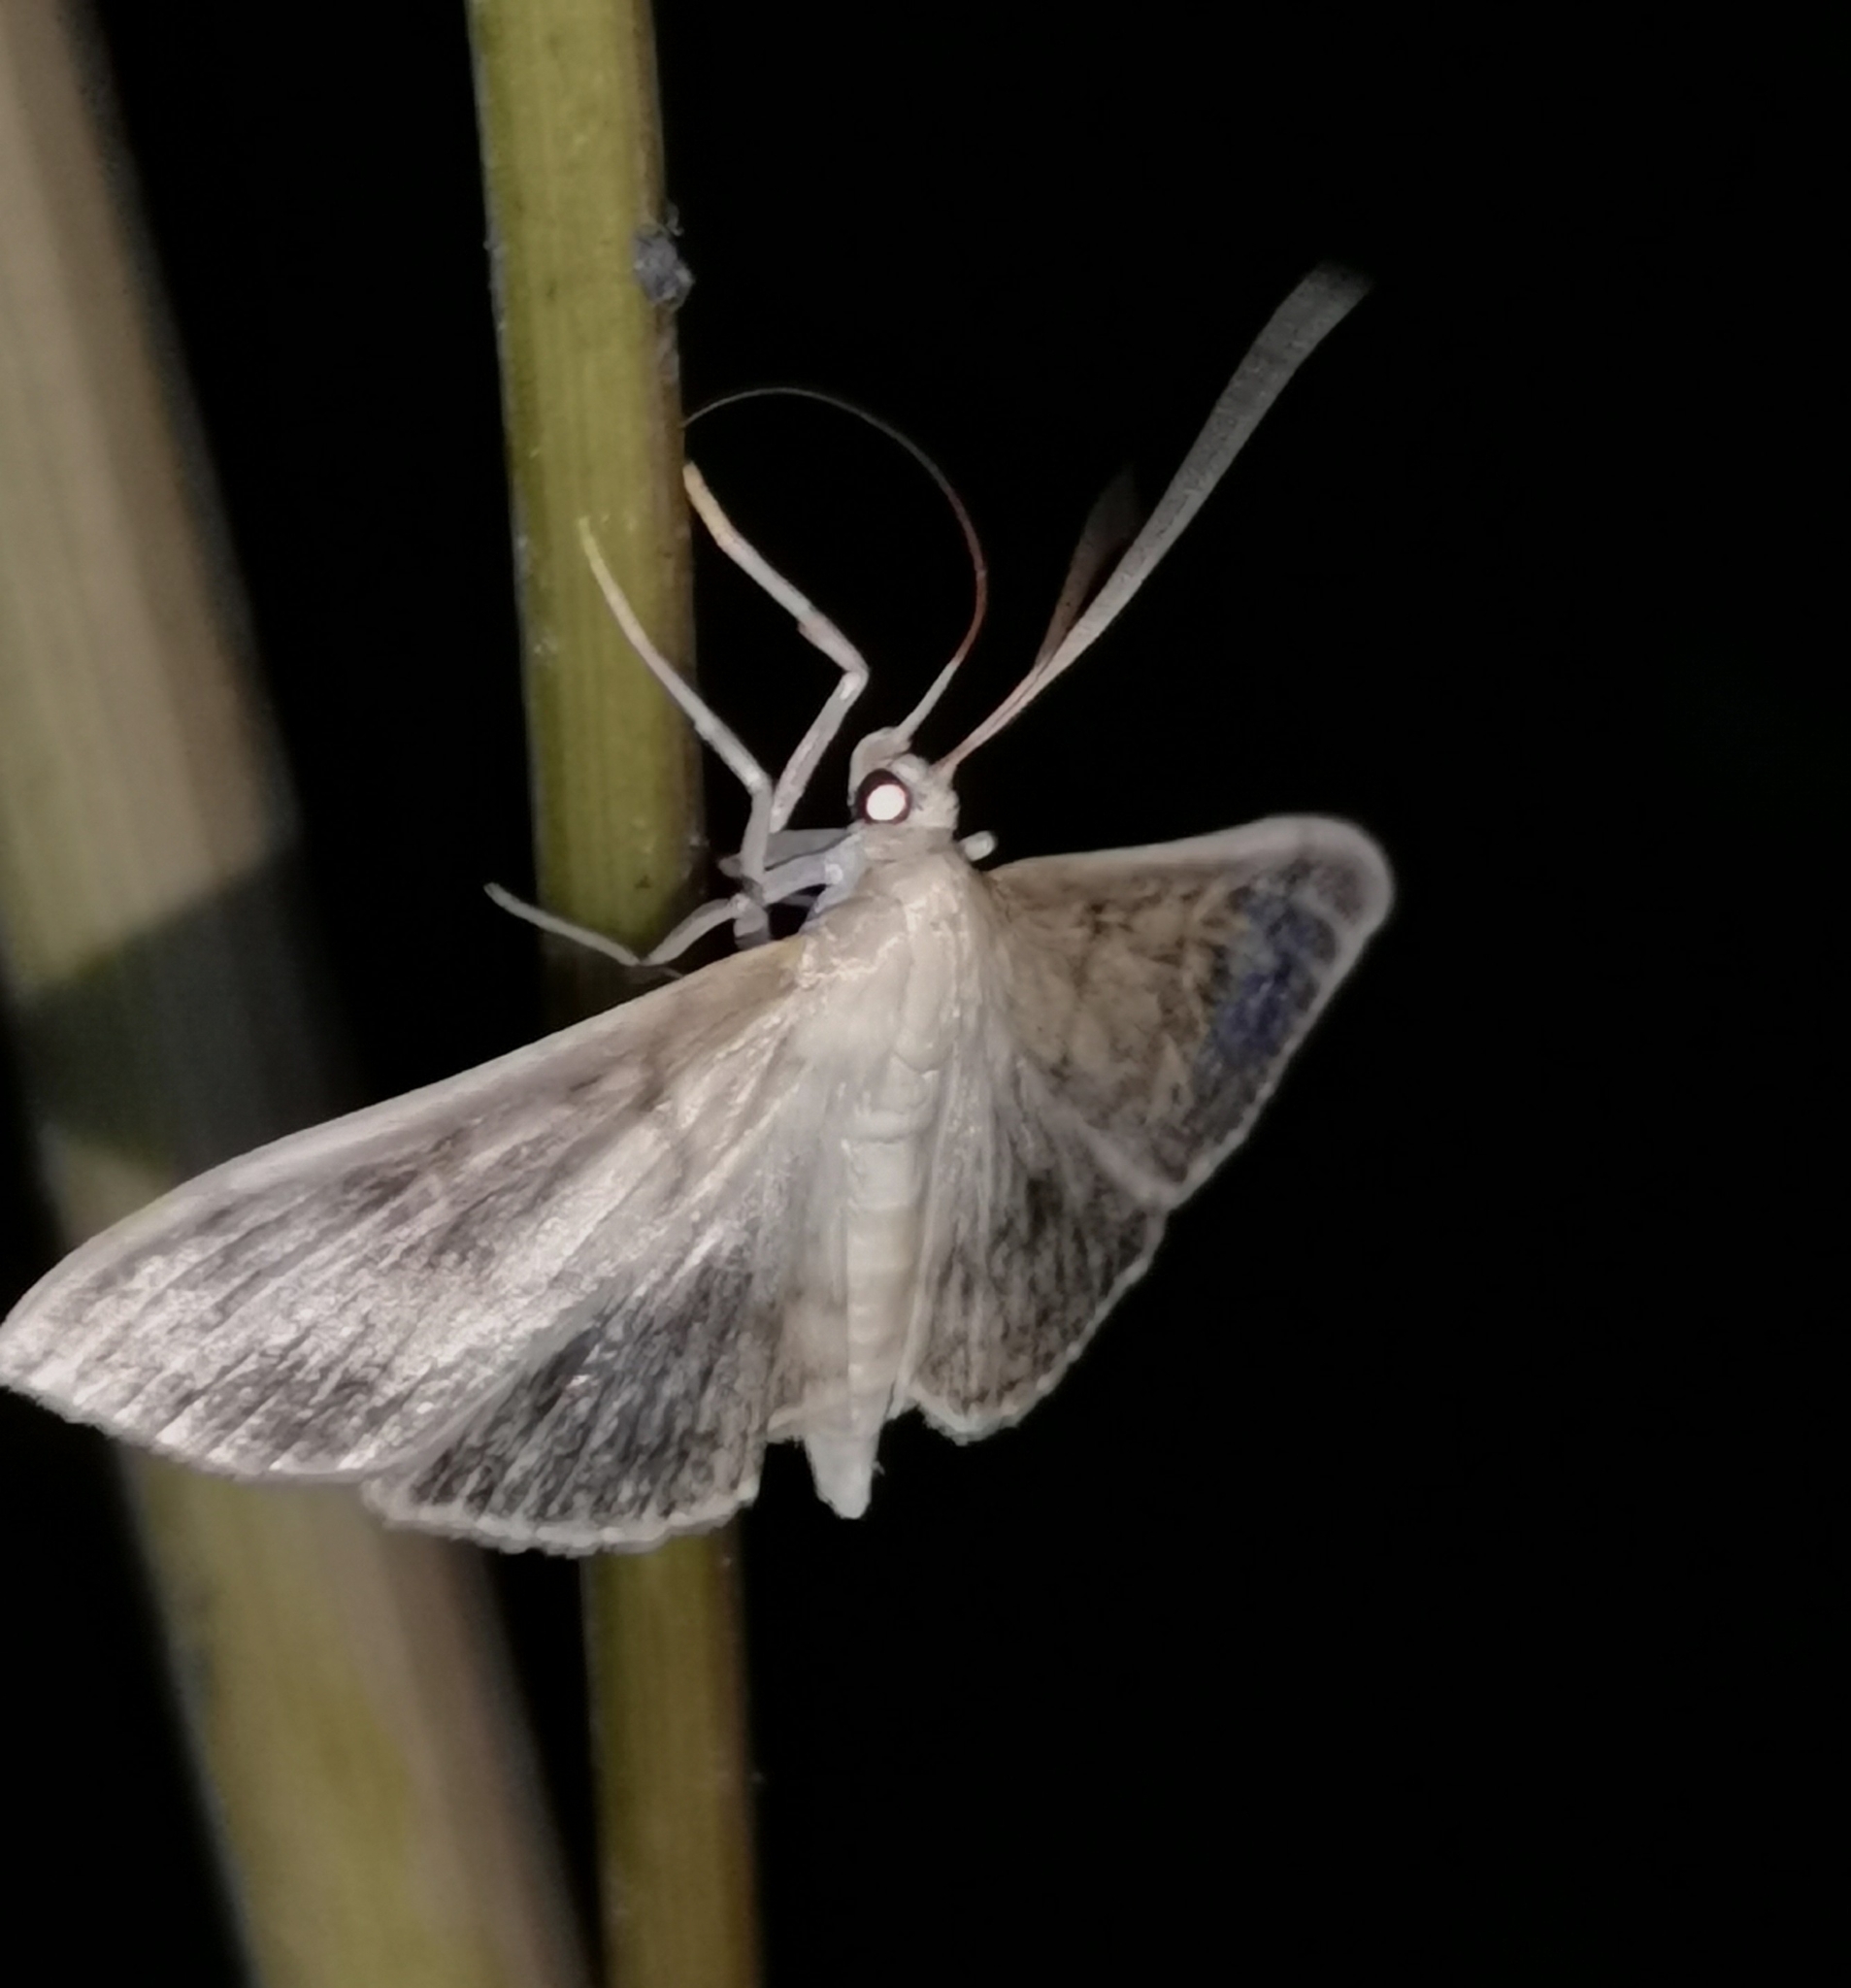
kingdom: Animalia
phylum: Arthropoda
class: Insecta
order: Lepidoptera
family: Crambidae
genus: Patania
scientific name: Patania ruralis
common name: Mother of pearl
